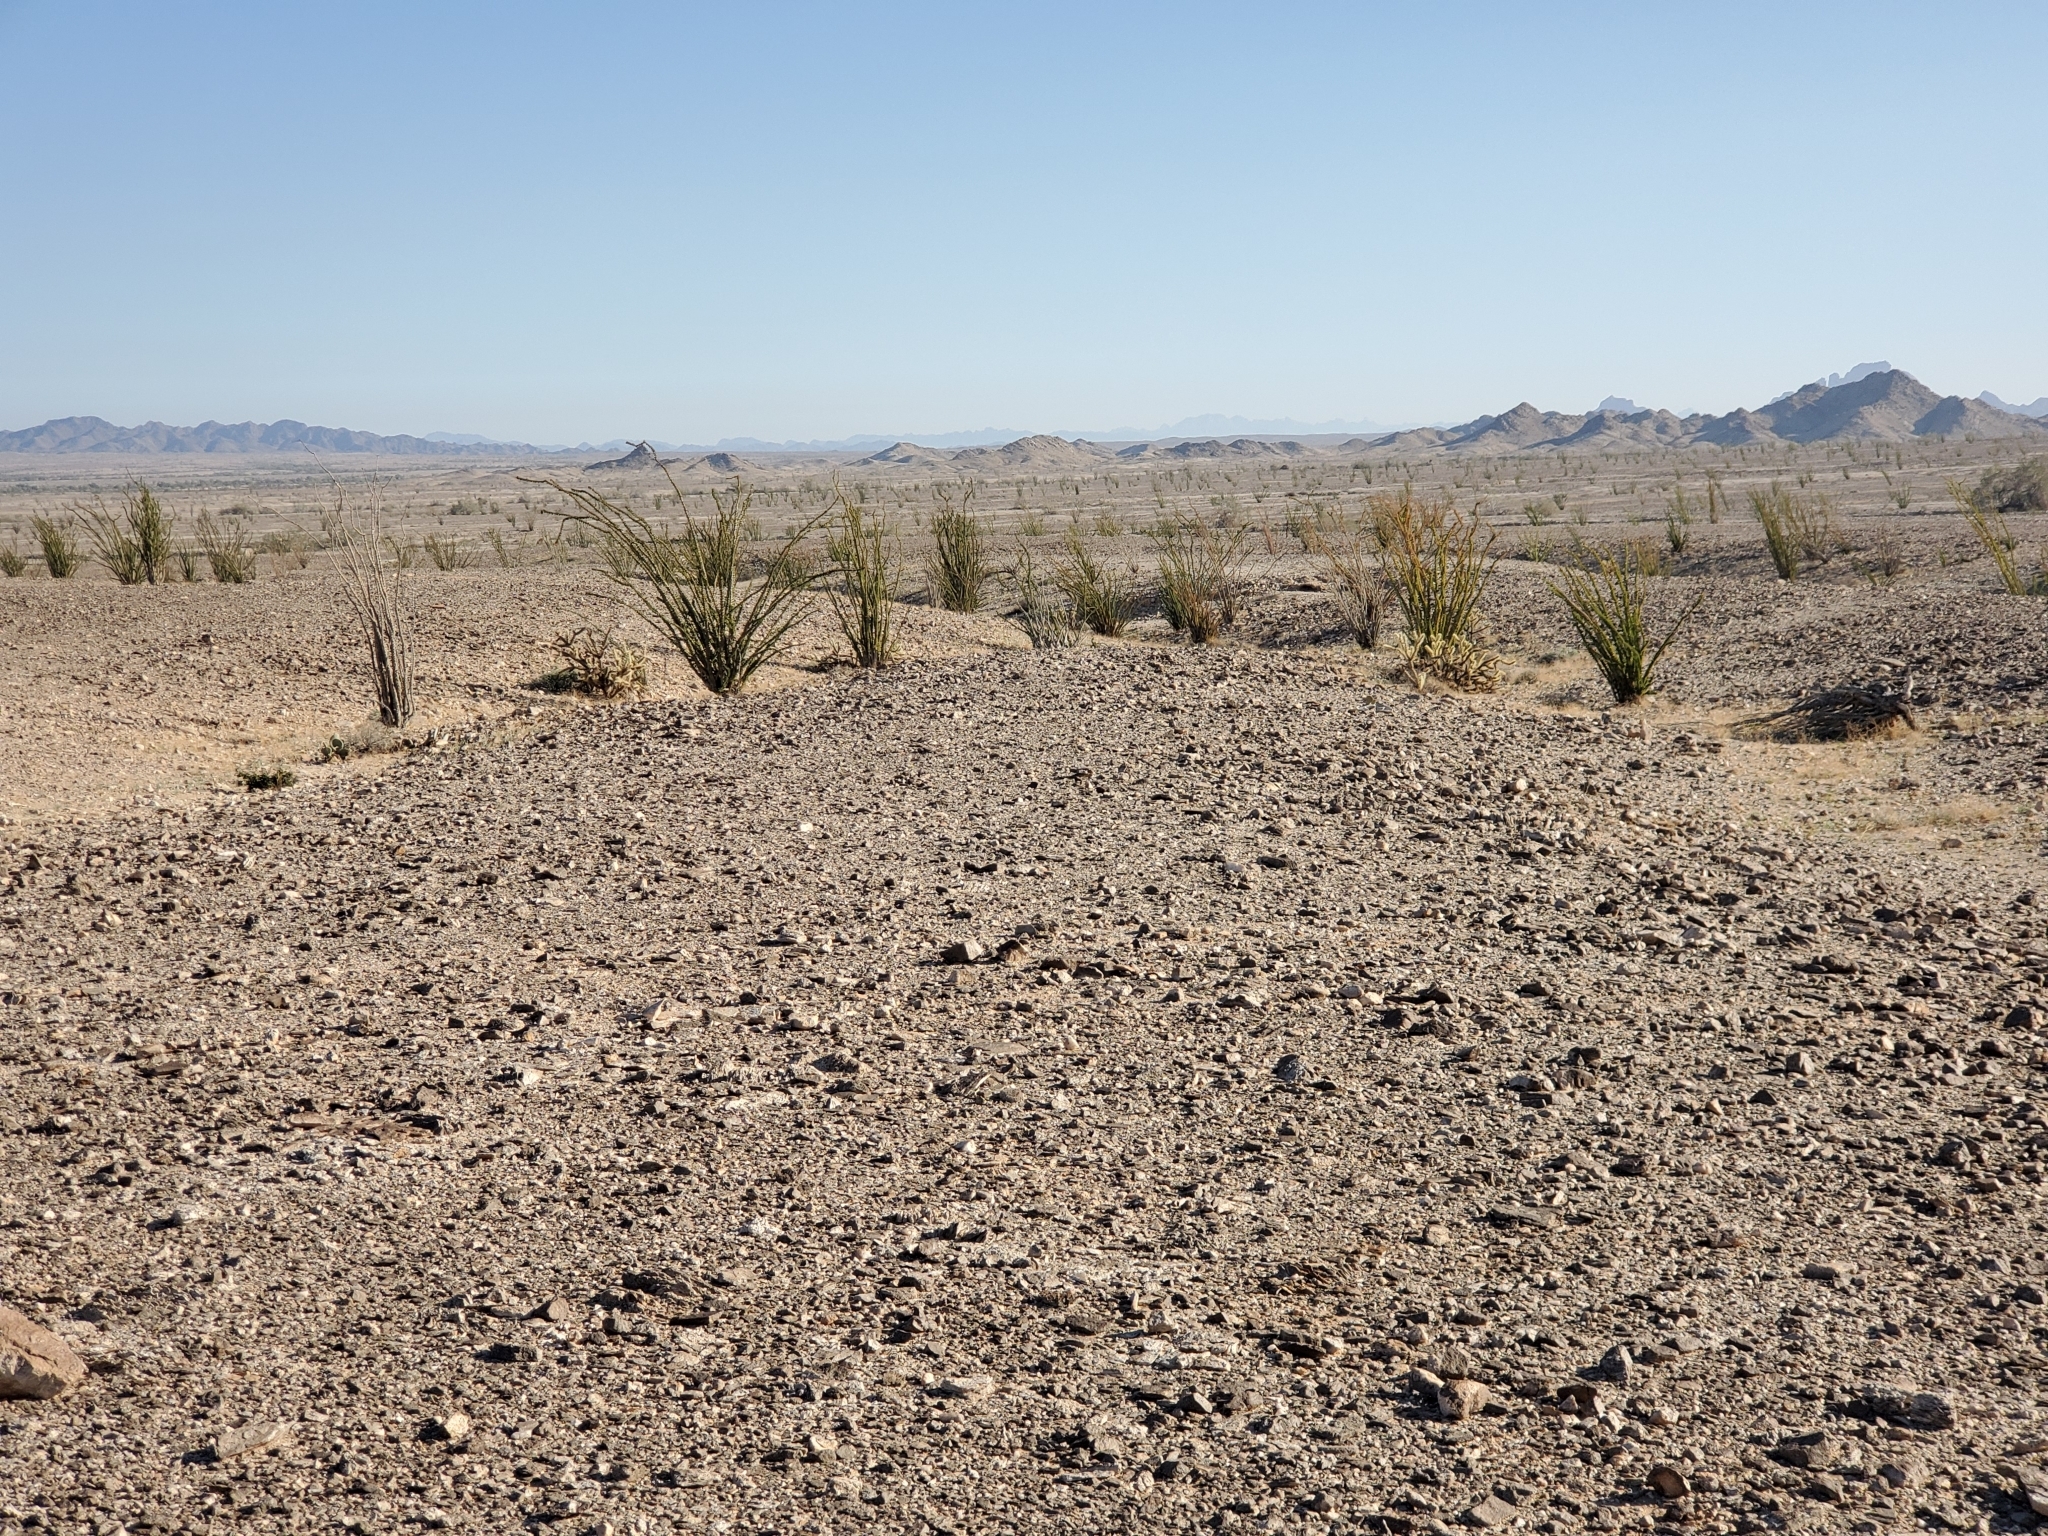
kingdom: Plantae
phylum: Tracheophyta
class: Magnoliopsida
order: Ericales
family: Fouquieriaceae
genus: Fouquieria
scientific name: Fouquieria splendens
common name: Vine-cactus
